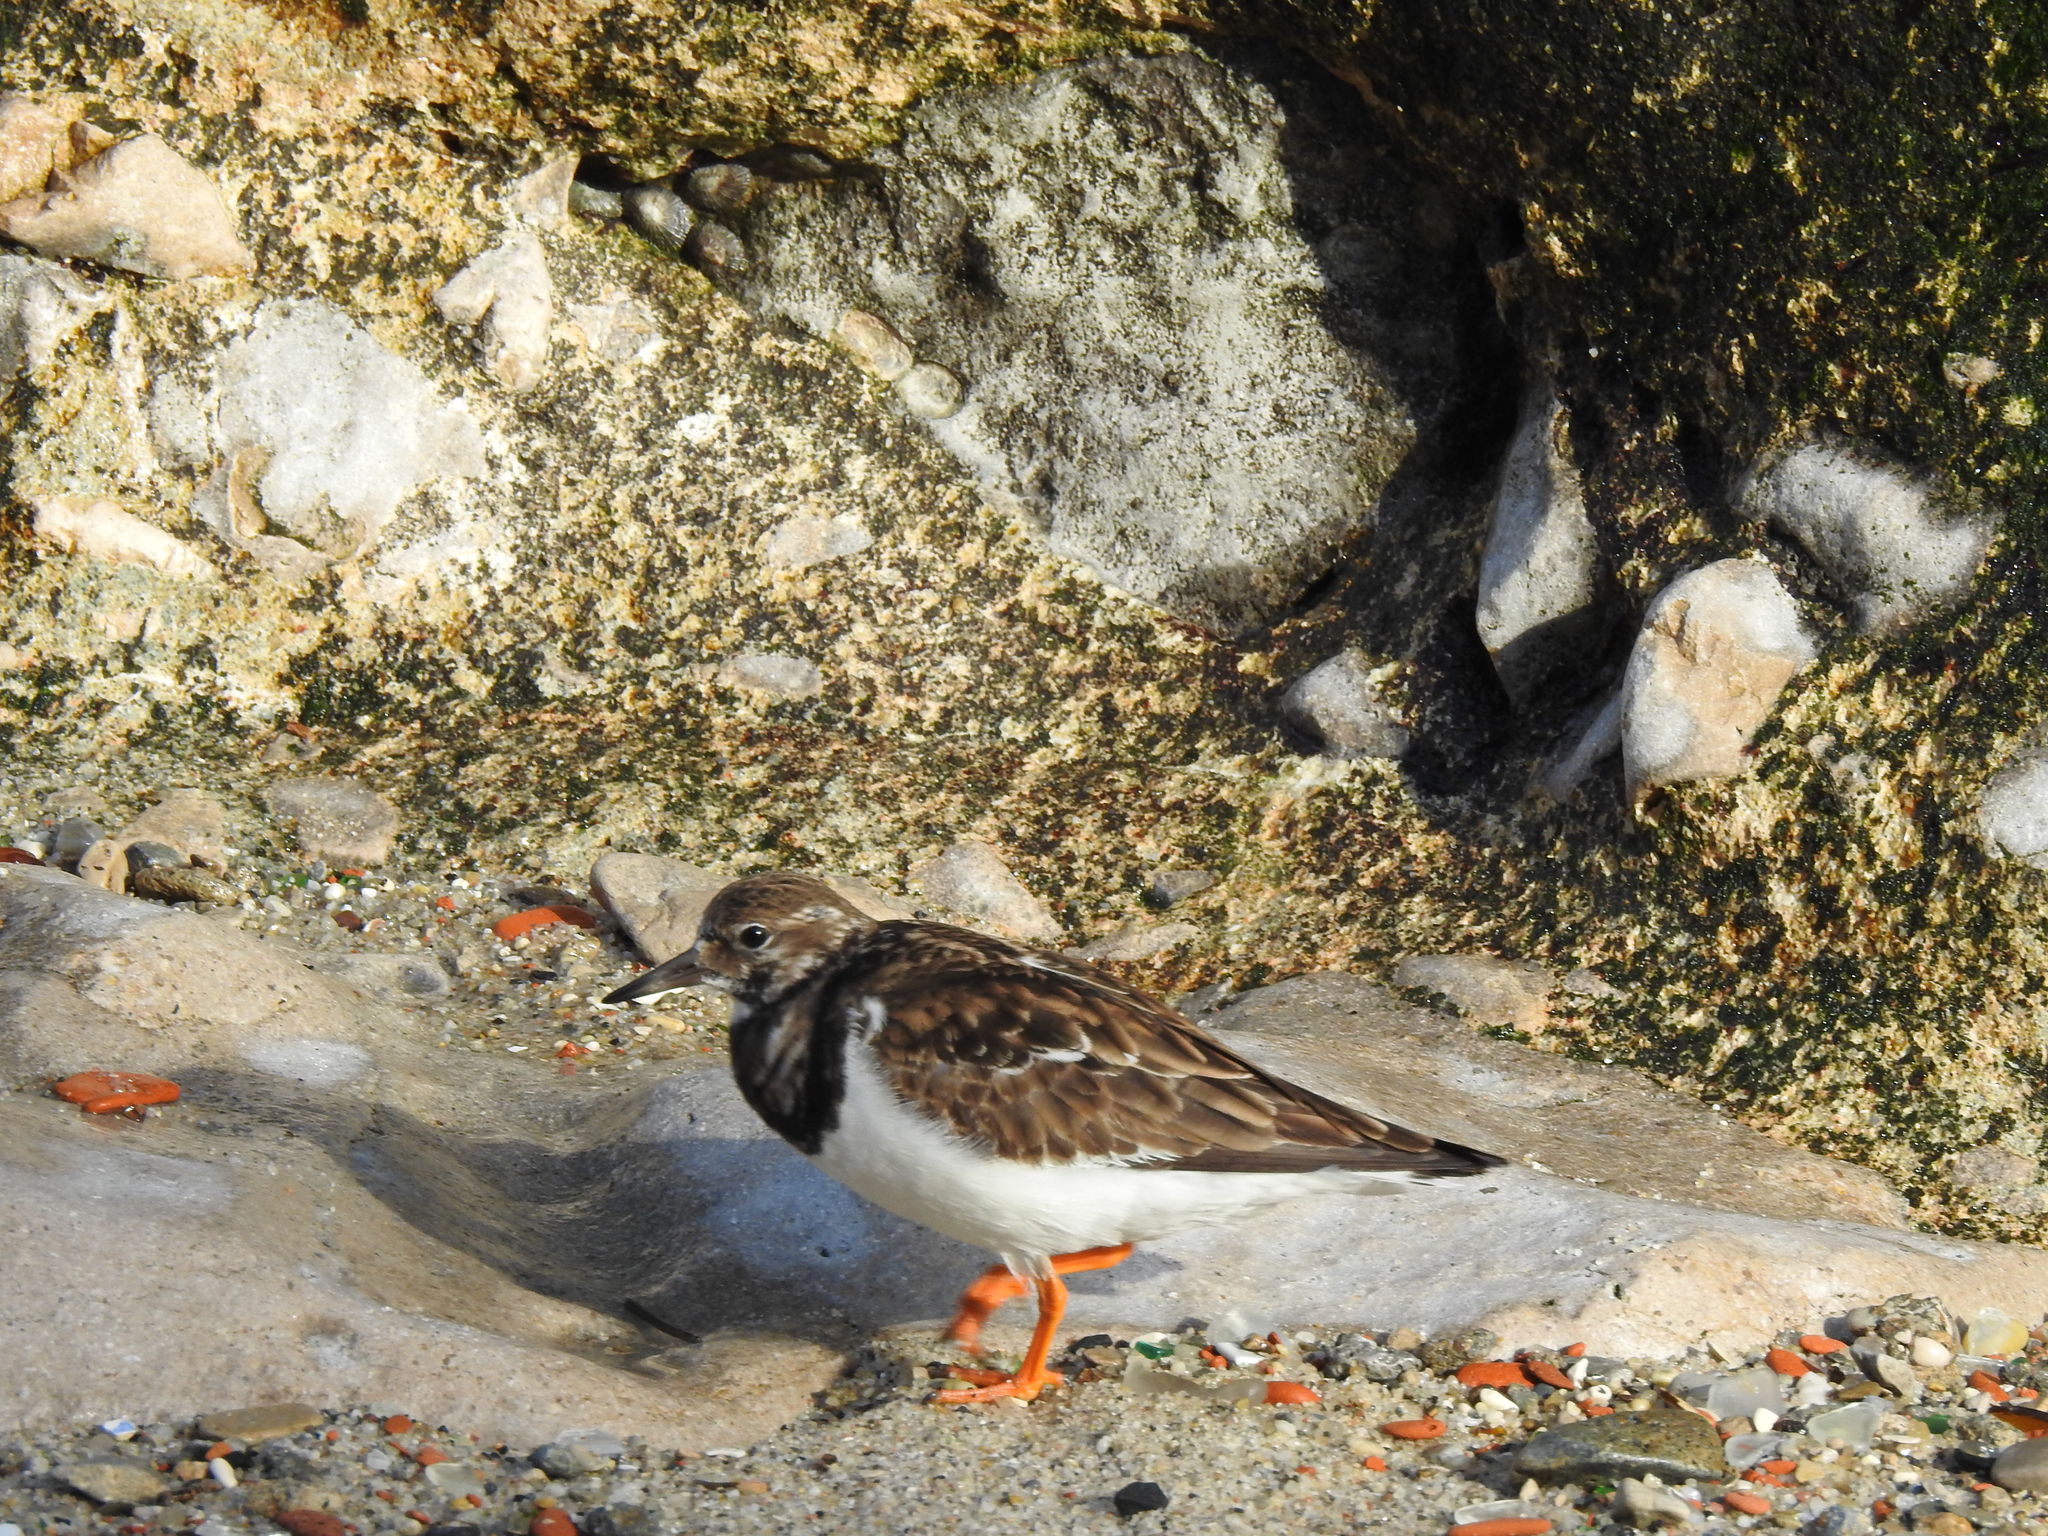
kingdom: Animalia
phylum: Chordata
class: Aves
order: Charadriiformes
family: Scolopacidae
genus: Arenaria
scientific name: Arenaria interpres
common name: Ruddy turnstone
